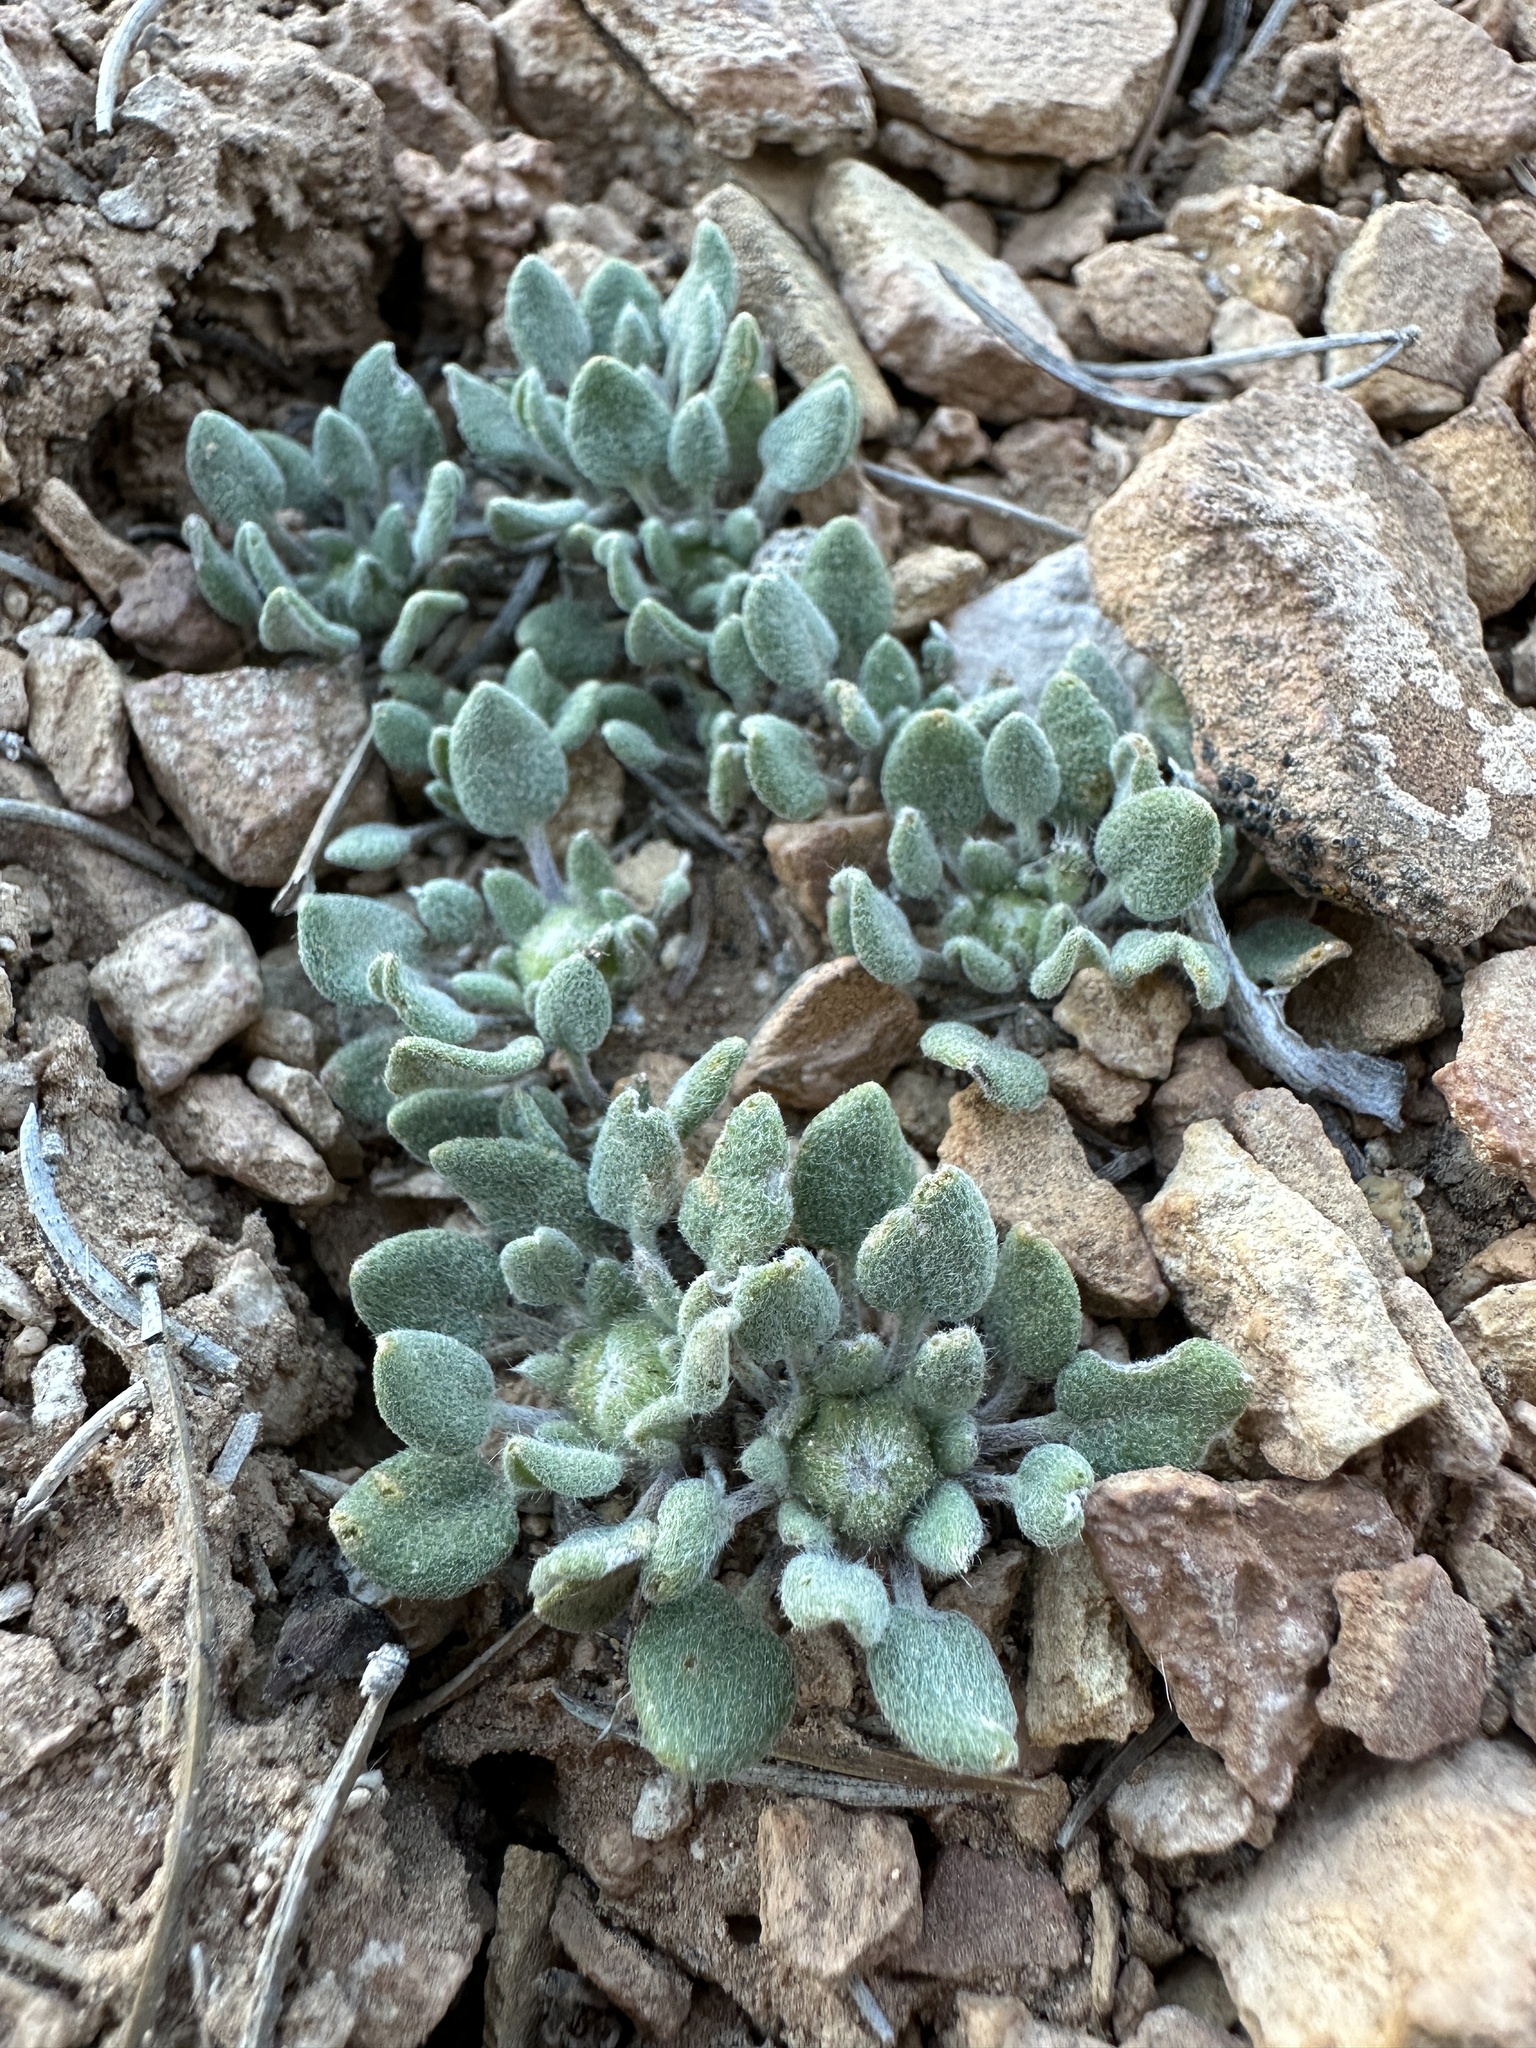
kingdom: Plantae
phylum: Tracheophyta
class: Magnoliopsida
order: Asterales
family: Asteraceae
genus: Chamaechaenactis
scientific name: Chamaechaenactis scaposa
